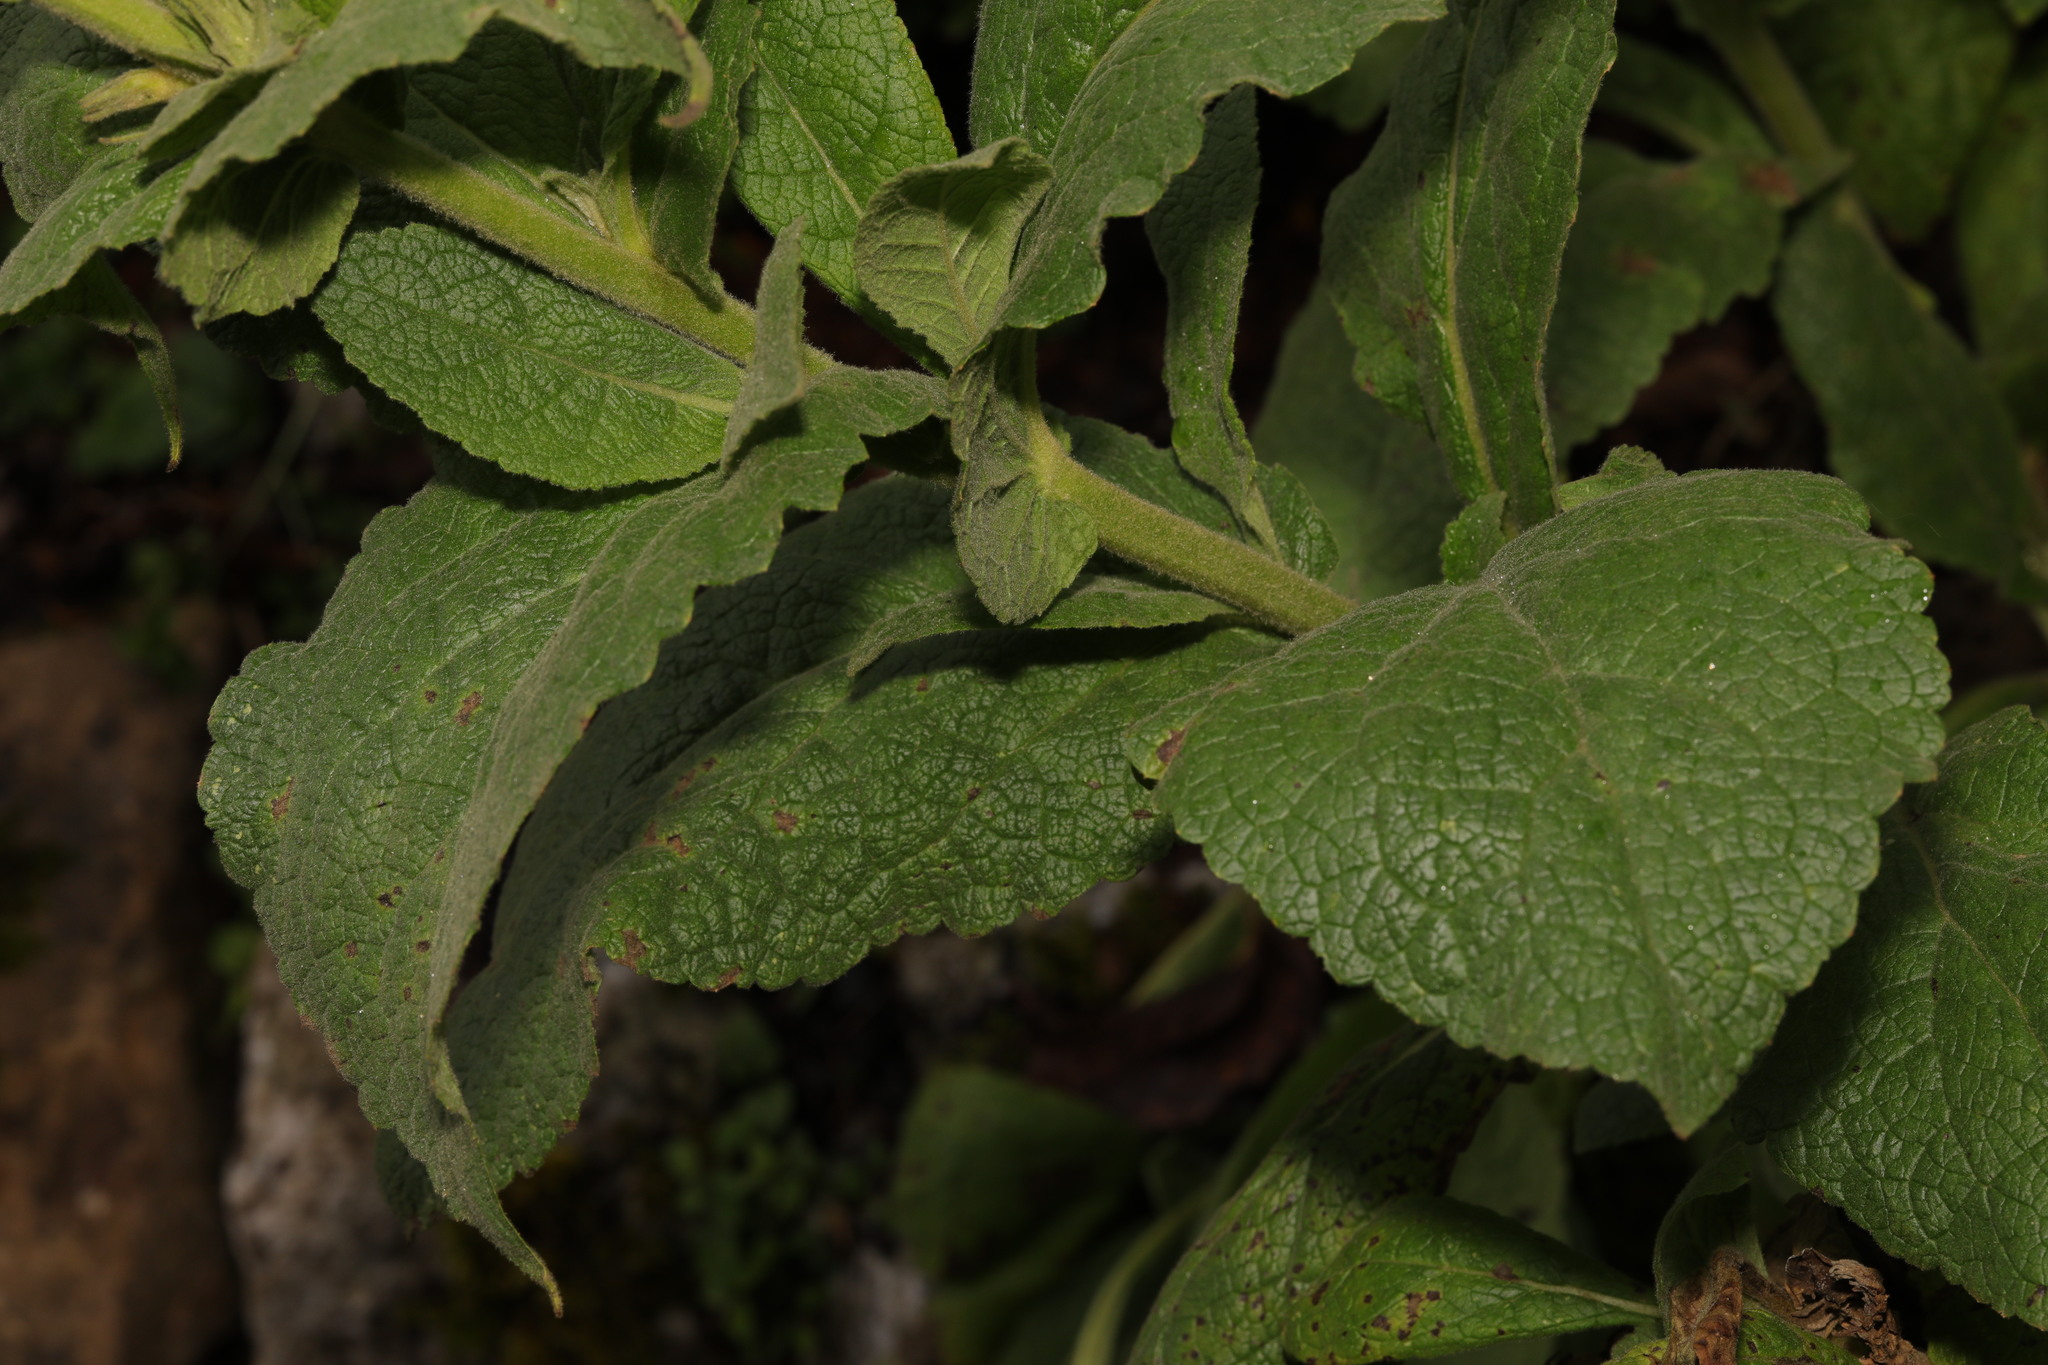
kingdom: Plantae
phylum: Tracheophyta
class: Magnoliopsida
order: Lamiales
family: Scrophulariaceae
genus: Verbascum
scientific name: Verbascum phlomoides
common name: Orange mullein
